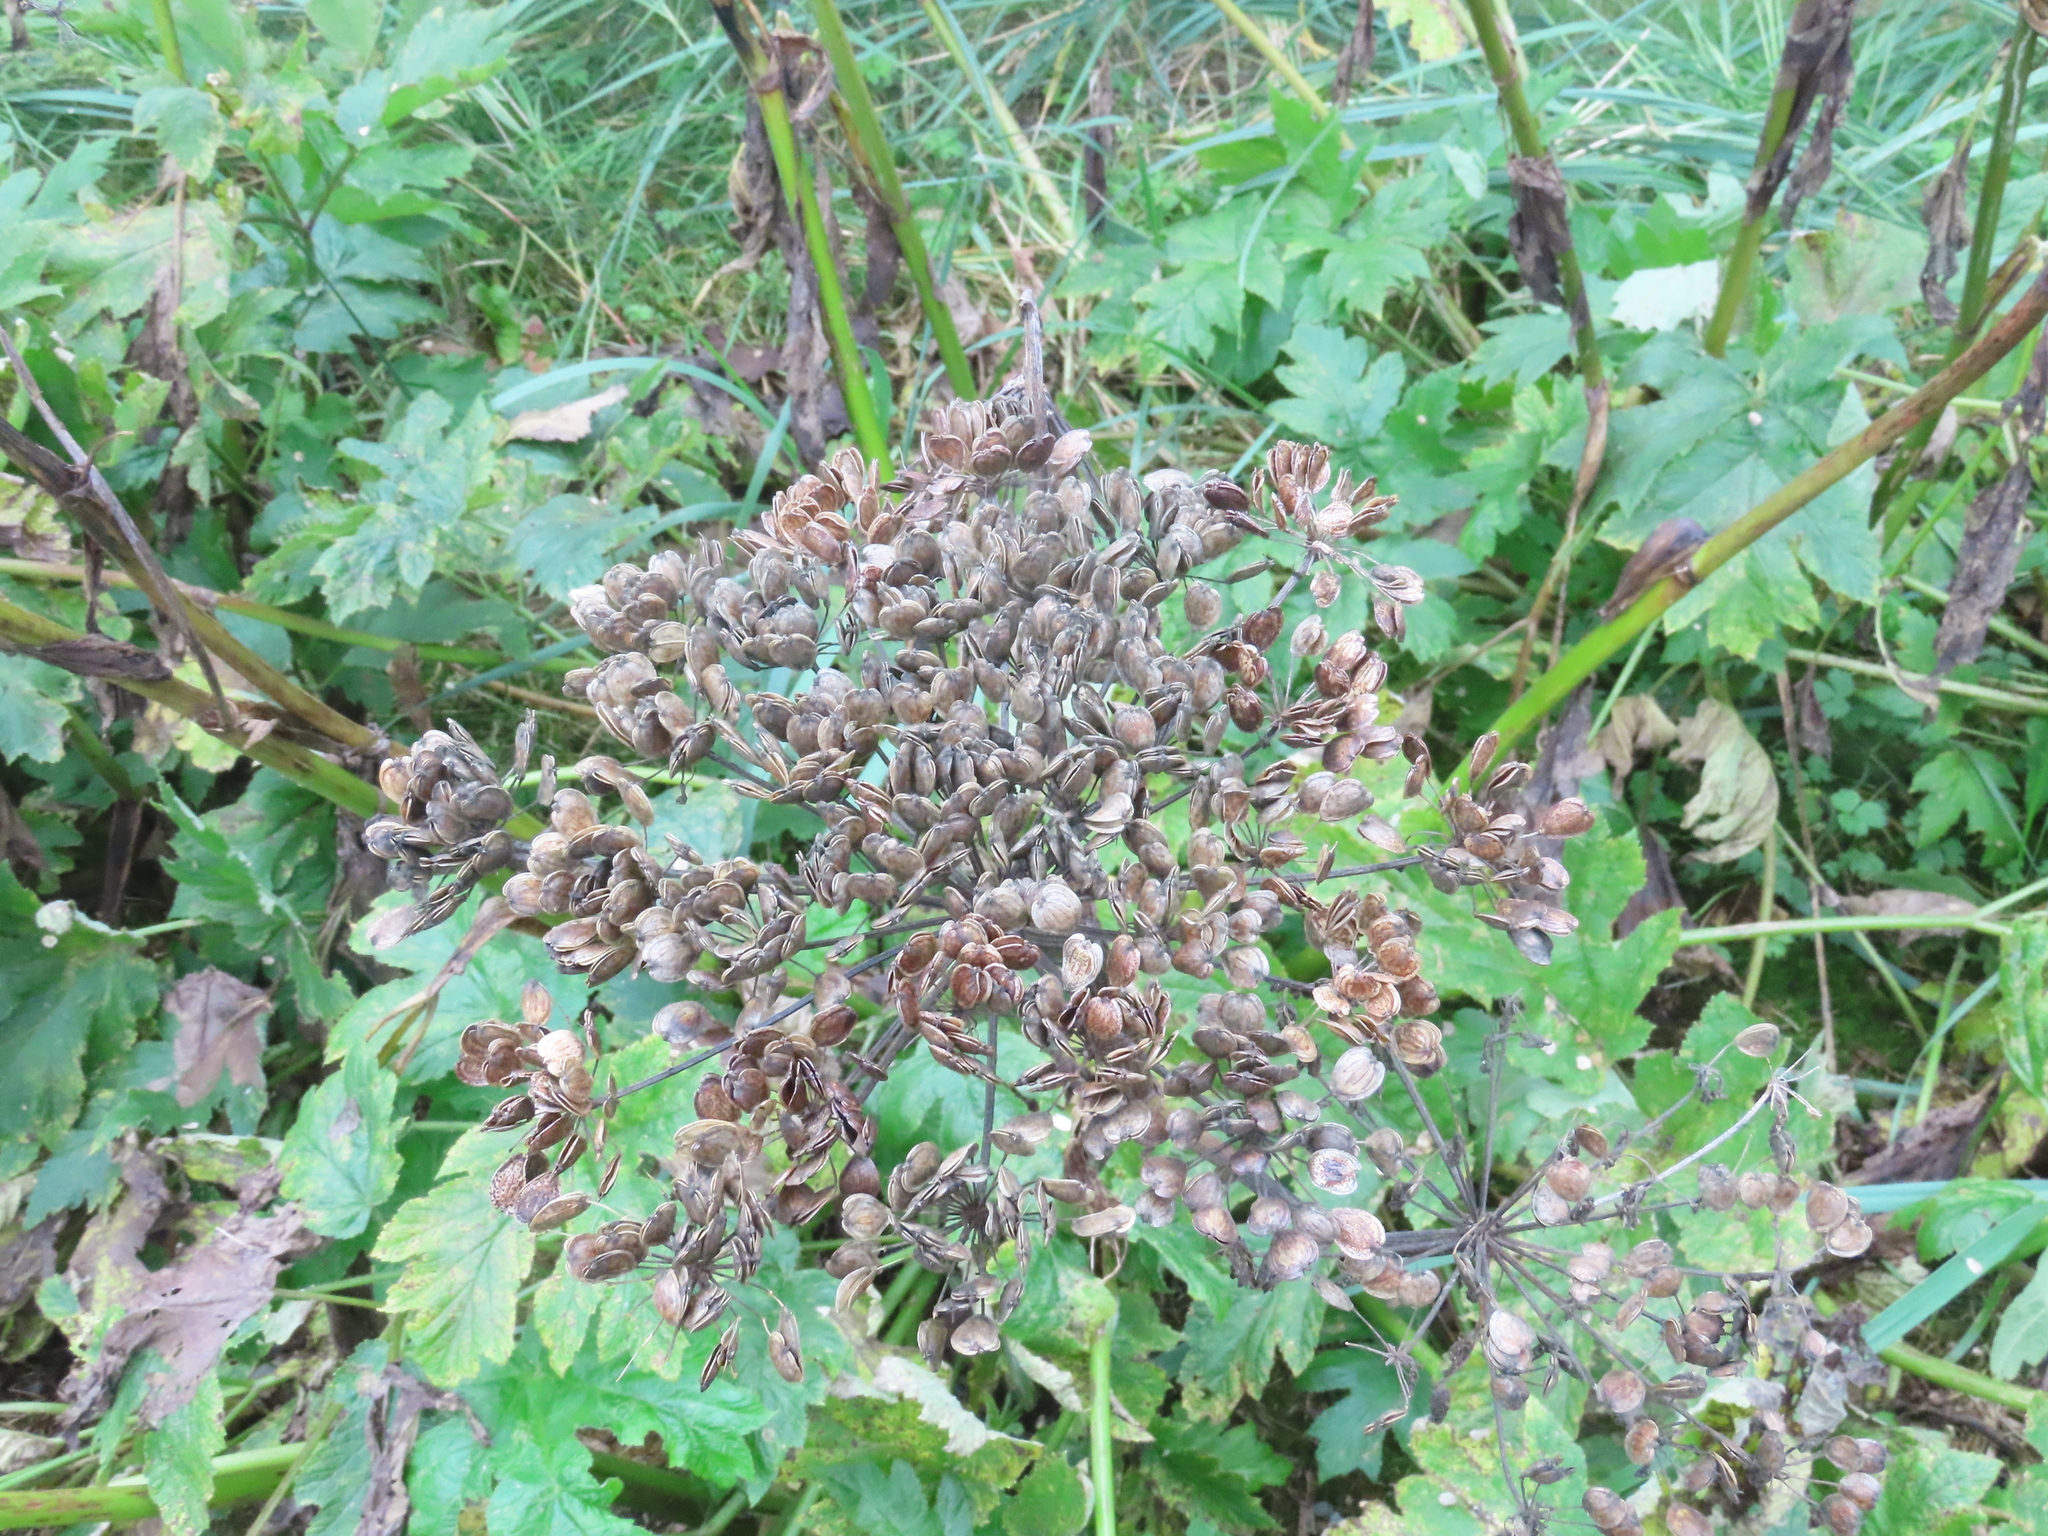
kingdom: Plantae
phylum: Tracheophyta
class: Magnoliopsida
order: Apiales
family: Apiaceae
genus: Heracleum
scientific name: Heracleum maximum
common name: American cow parsnip
